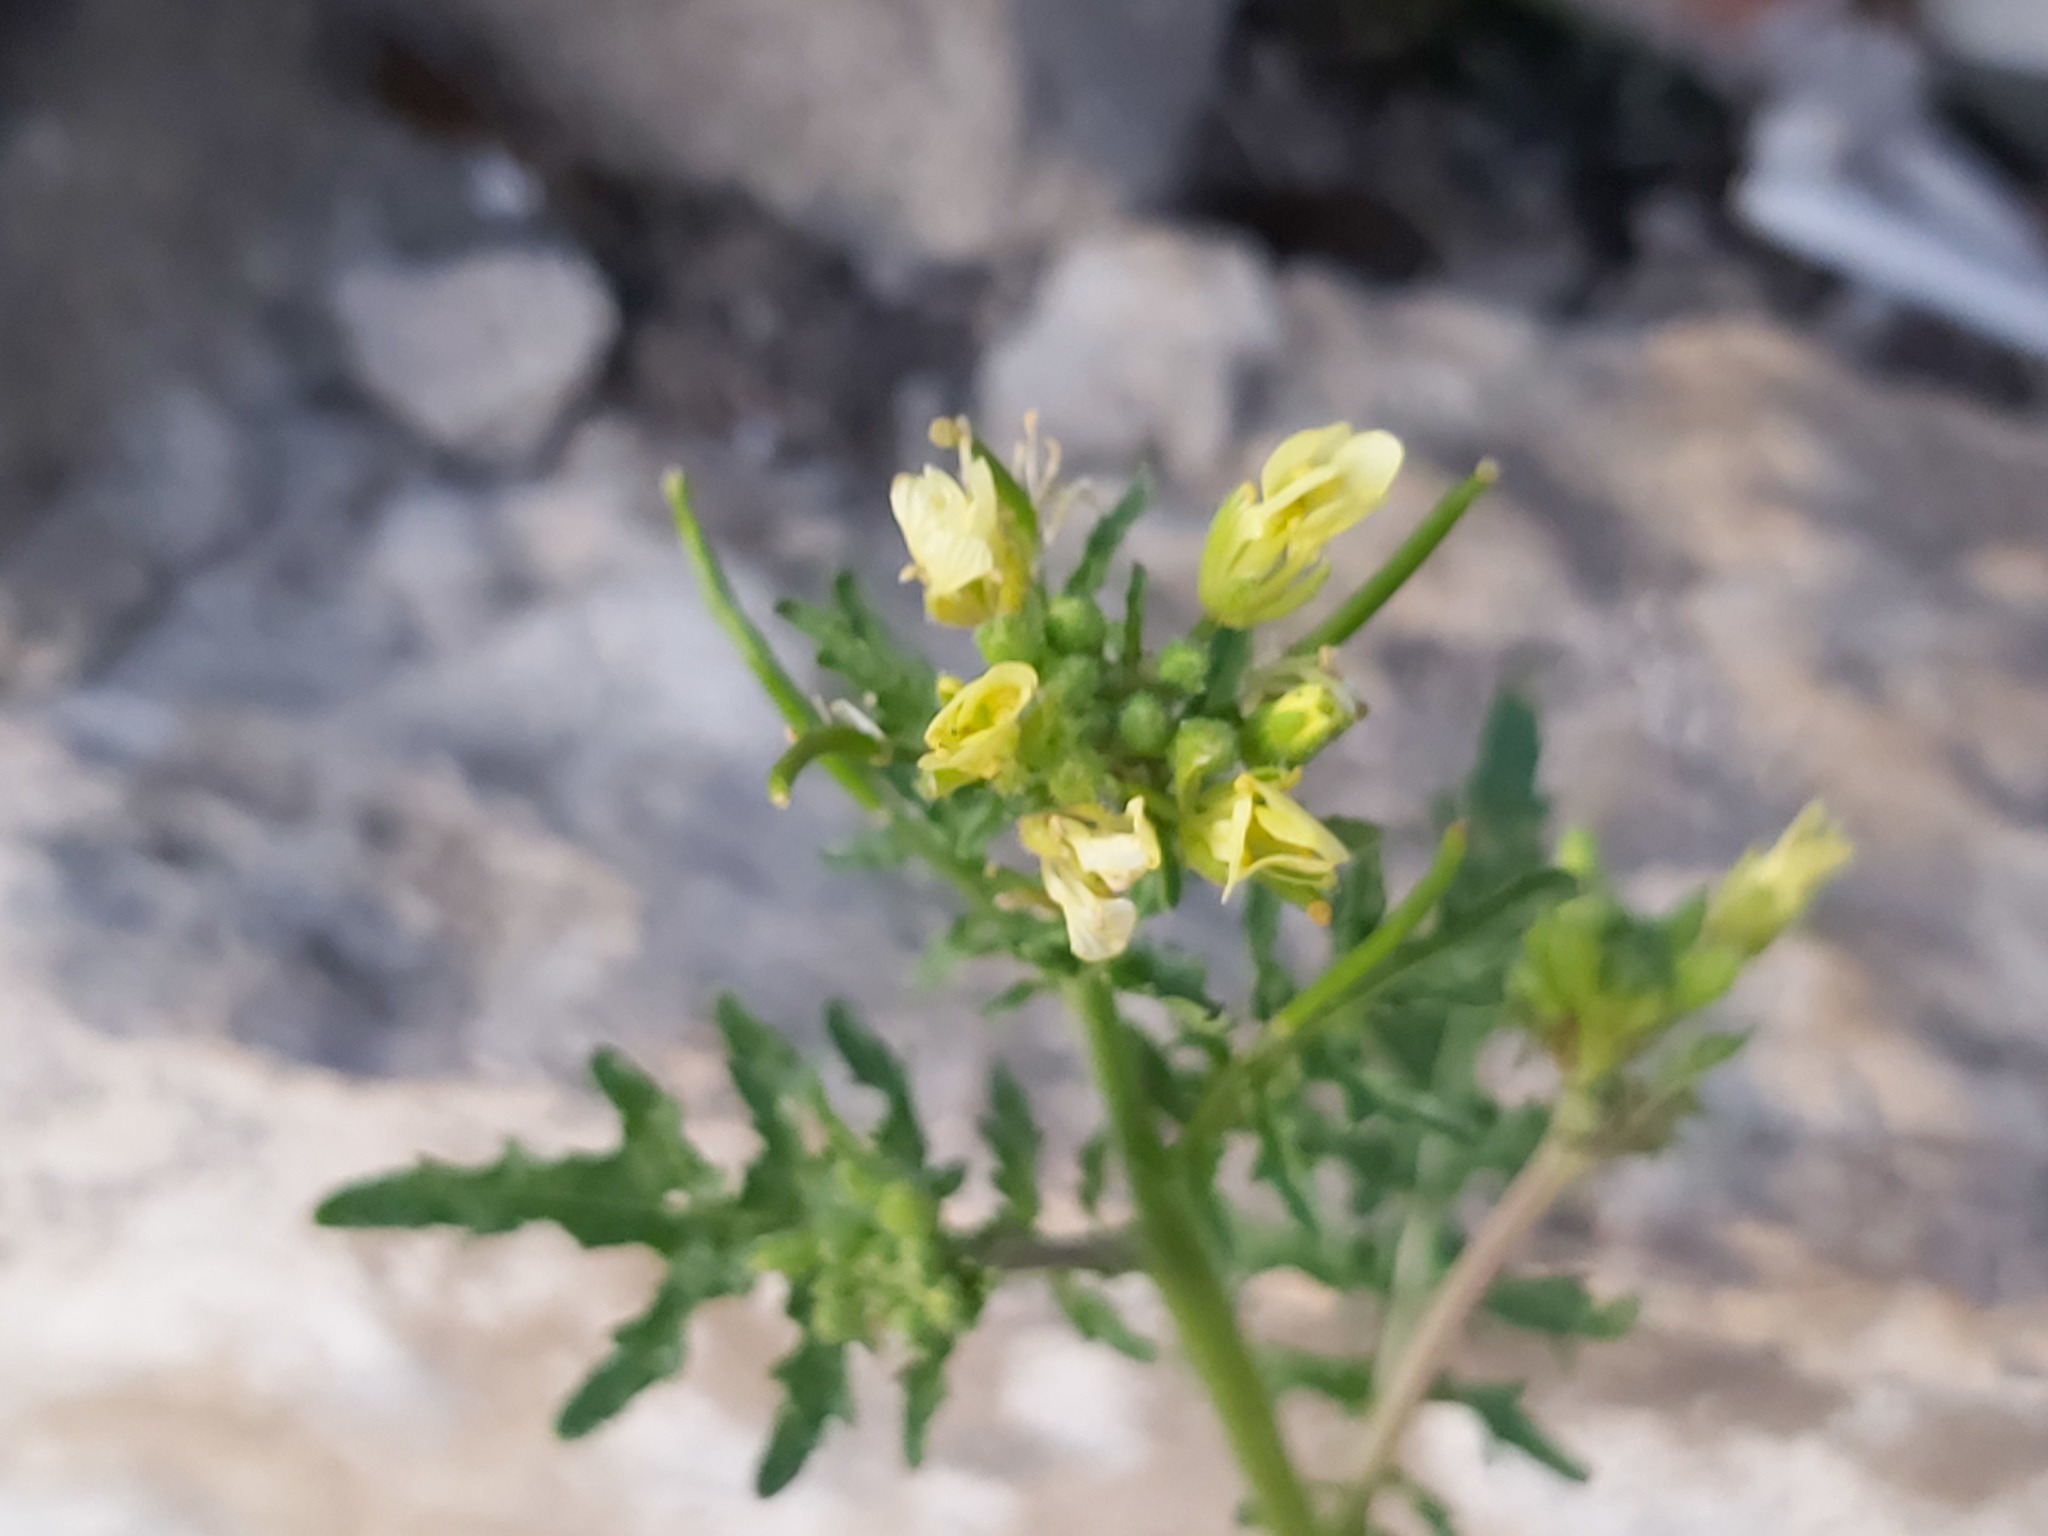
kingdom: Plantae
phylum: Tracheophyta
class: Magnoliopsida
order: Brassicales
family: Brassicaceae
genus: Erucastrum
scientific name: Erucastrum gallicum
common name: Hairy rocket
